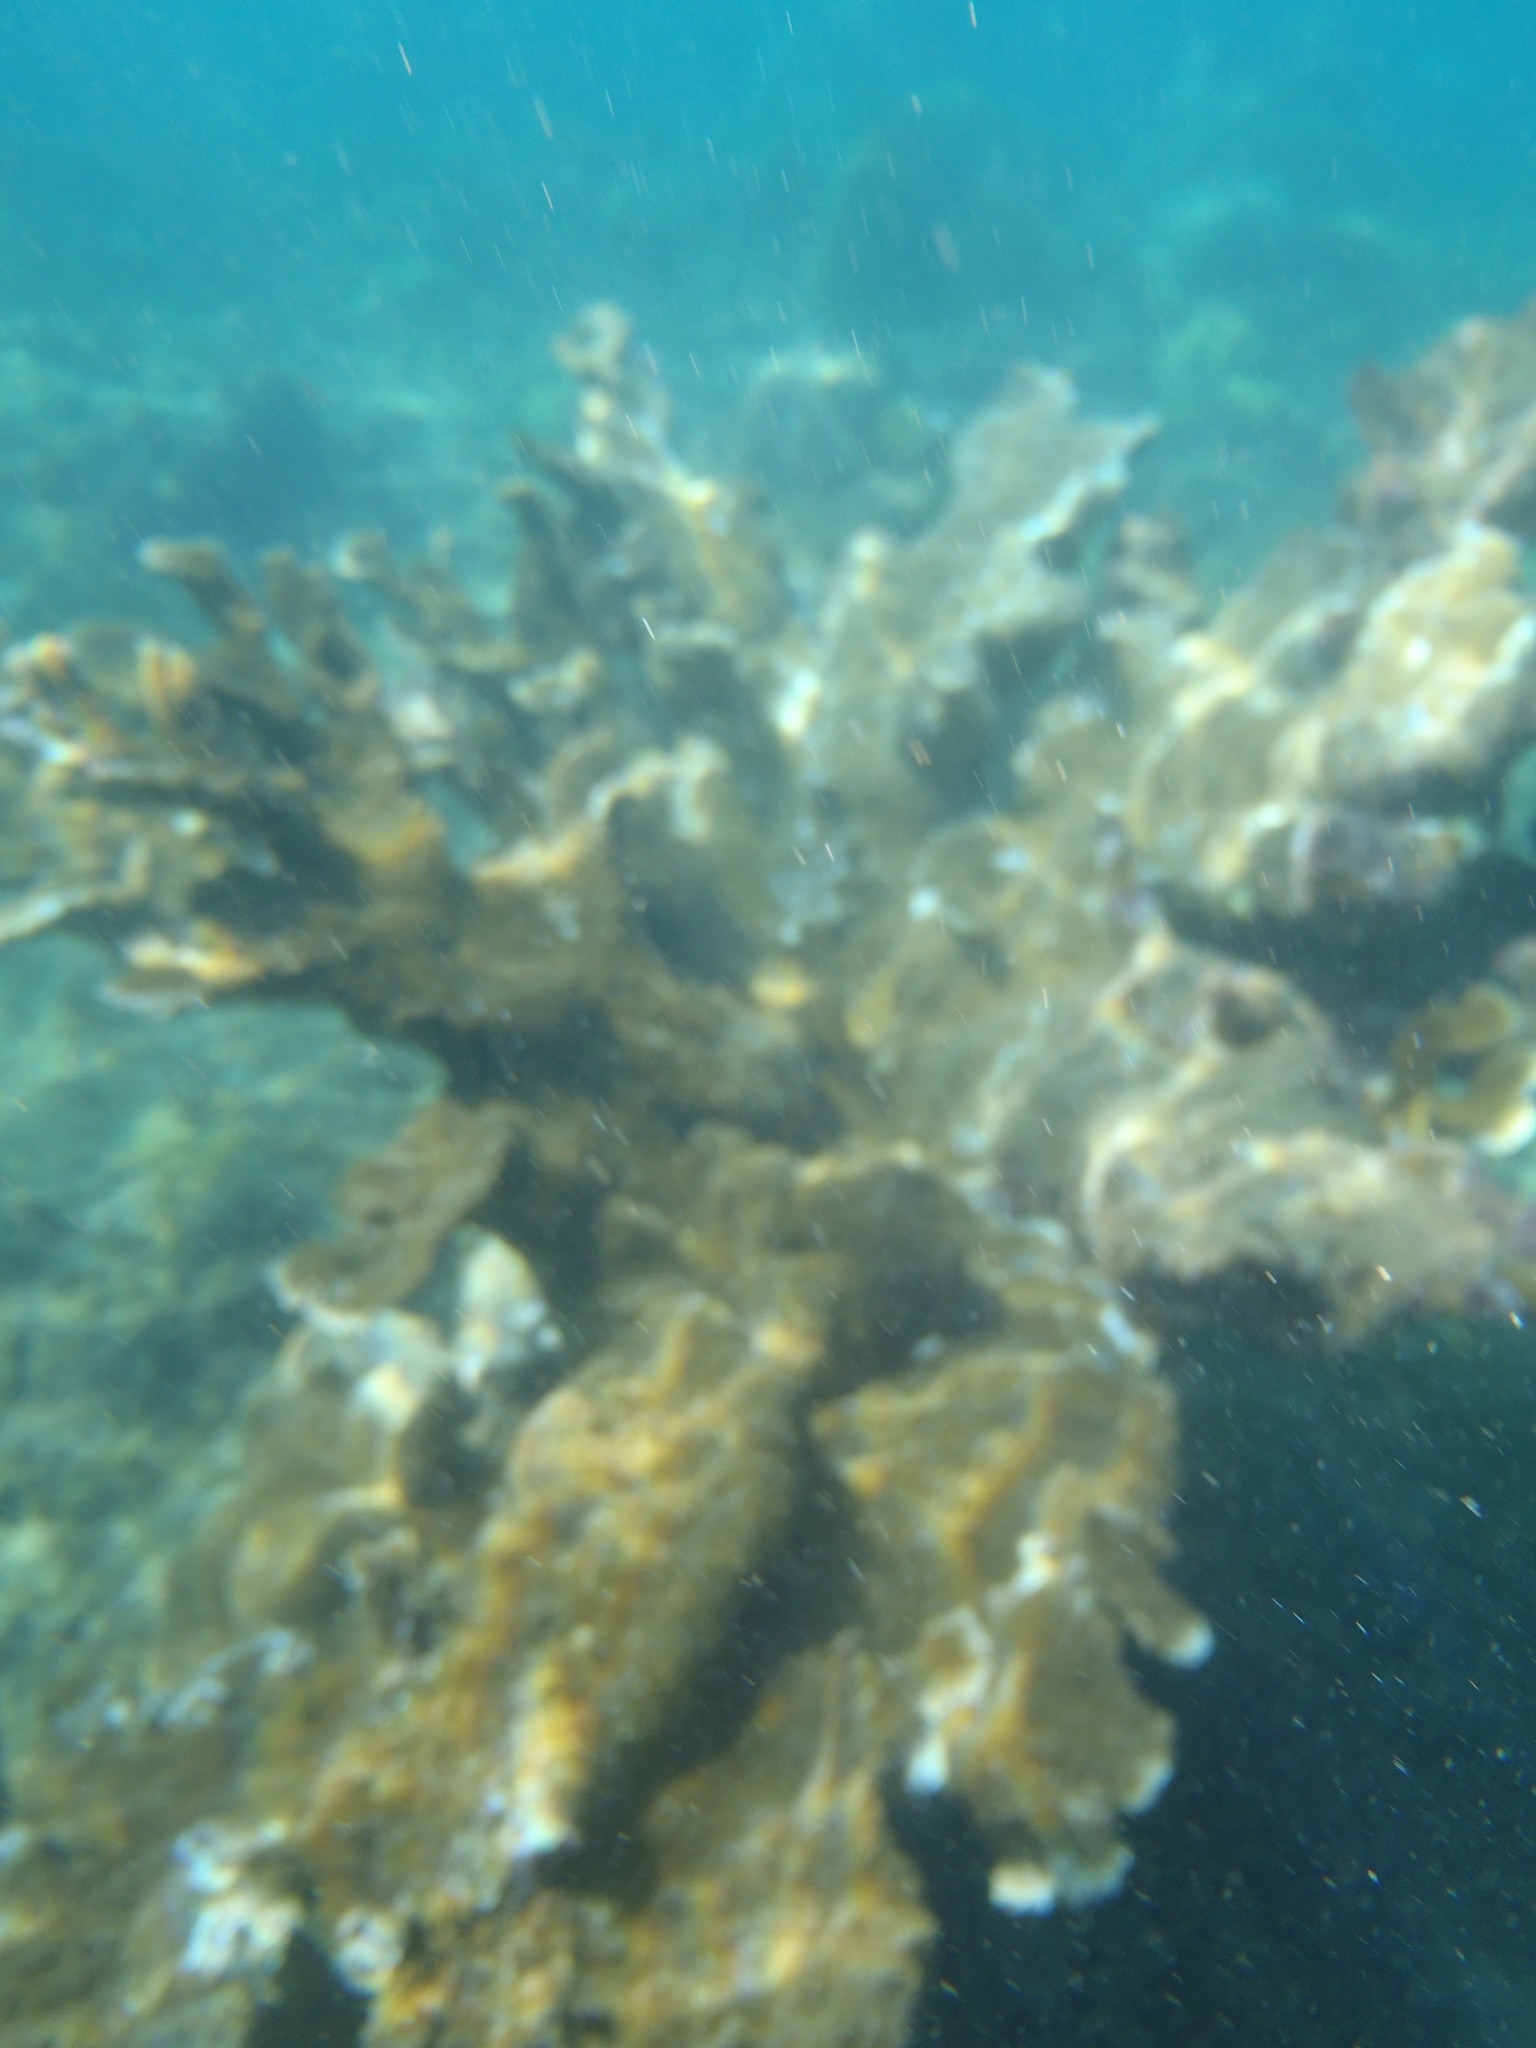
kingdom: Animalia
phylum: Cnidaria
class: Anthozoa
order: Scleractinia
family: Acroporidae
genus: Acropora
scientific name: Acropora palmata
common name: Elkhorn coral
